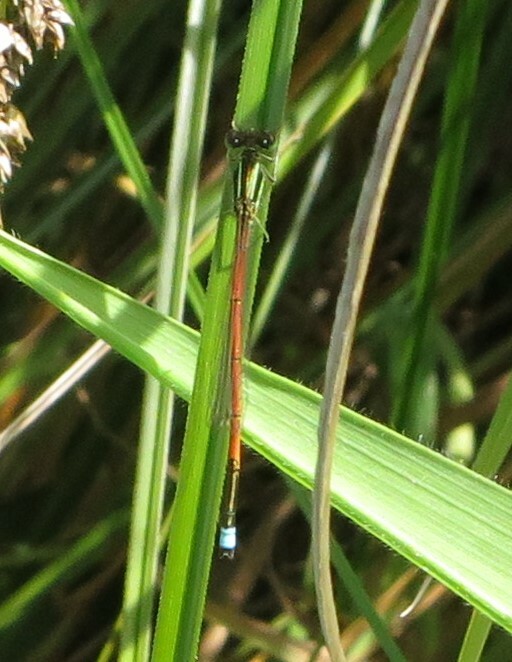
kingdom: Animalia
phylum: Arthropoda
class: Insecta
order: Odonata
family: Coenagrionidae
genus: Ischnura
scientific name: Ischnura aurora
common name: Gossamer damselfly
